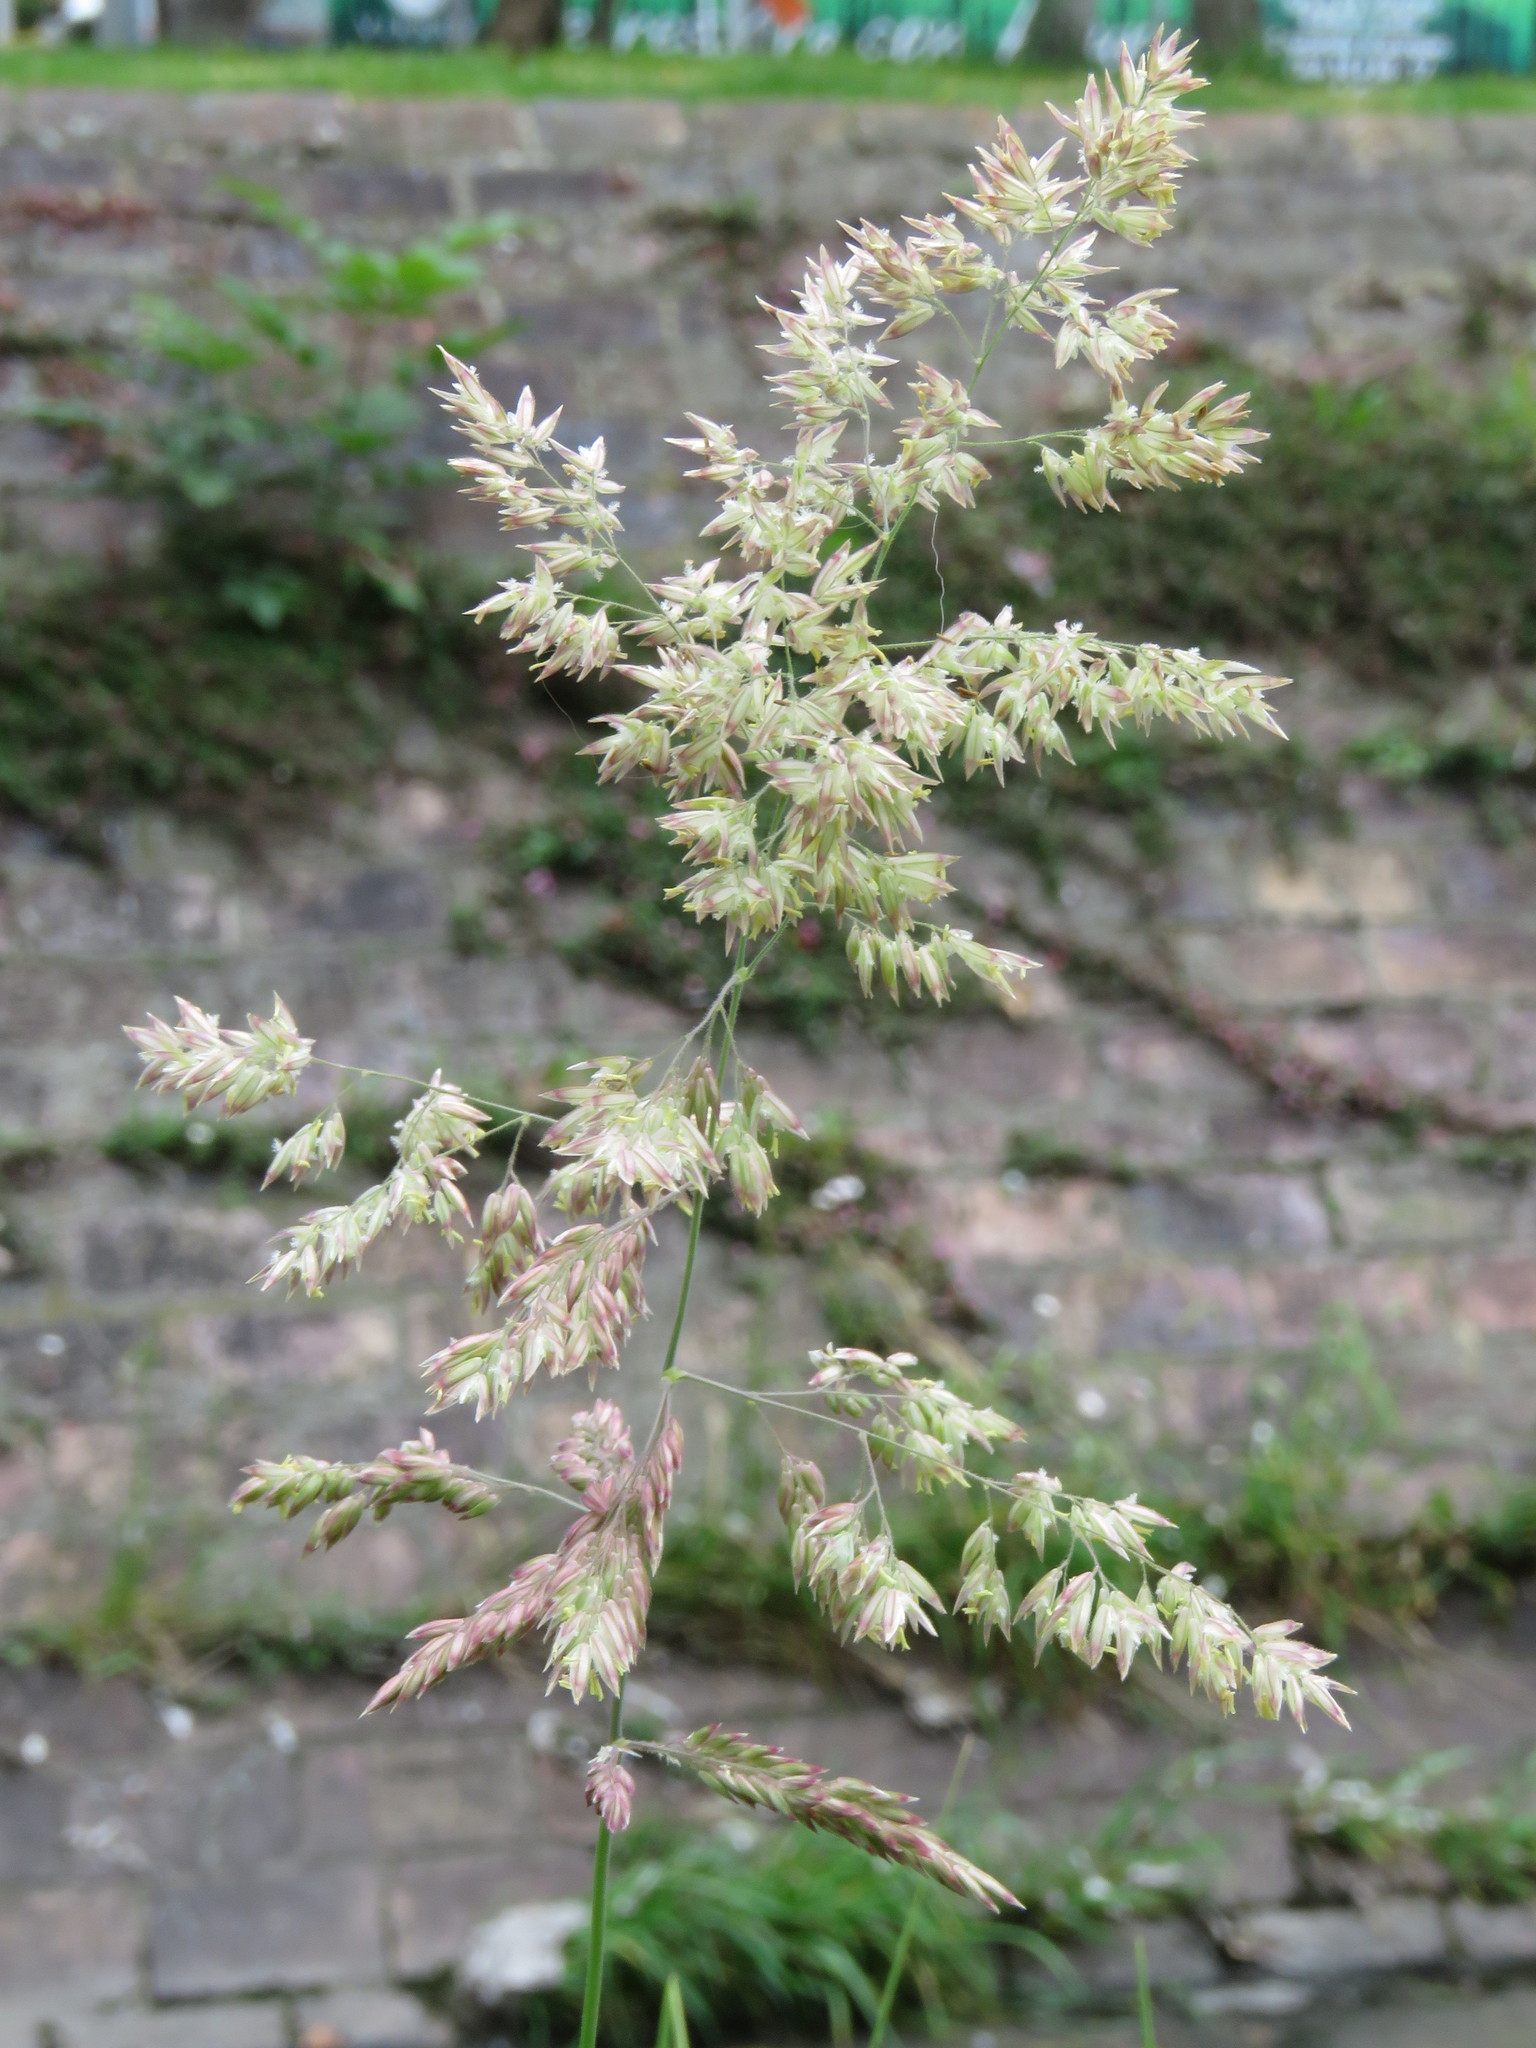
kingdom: Plantae
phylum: Tracheophyta
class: Liliopsida
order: Poales
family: Poaceae
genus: Holcus
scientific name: Holcus lanatus
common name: Yorkshire-fog
